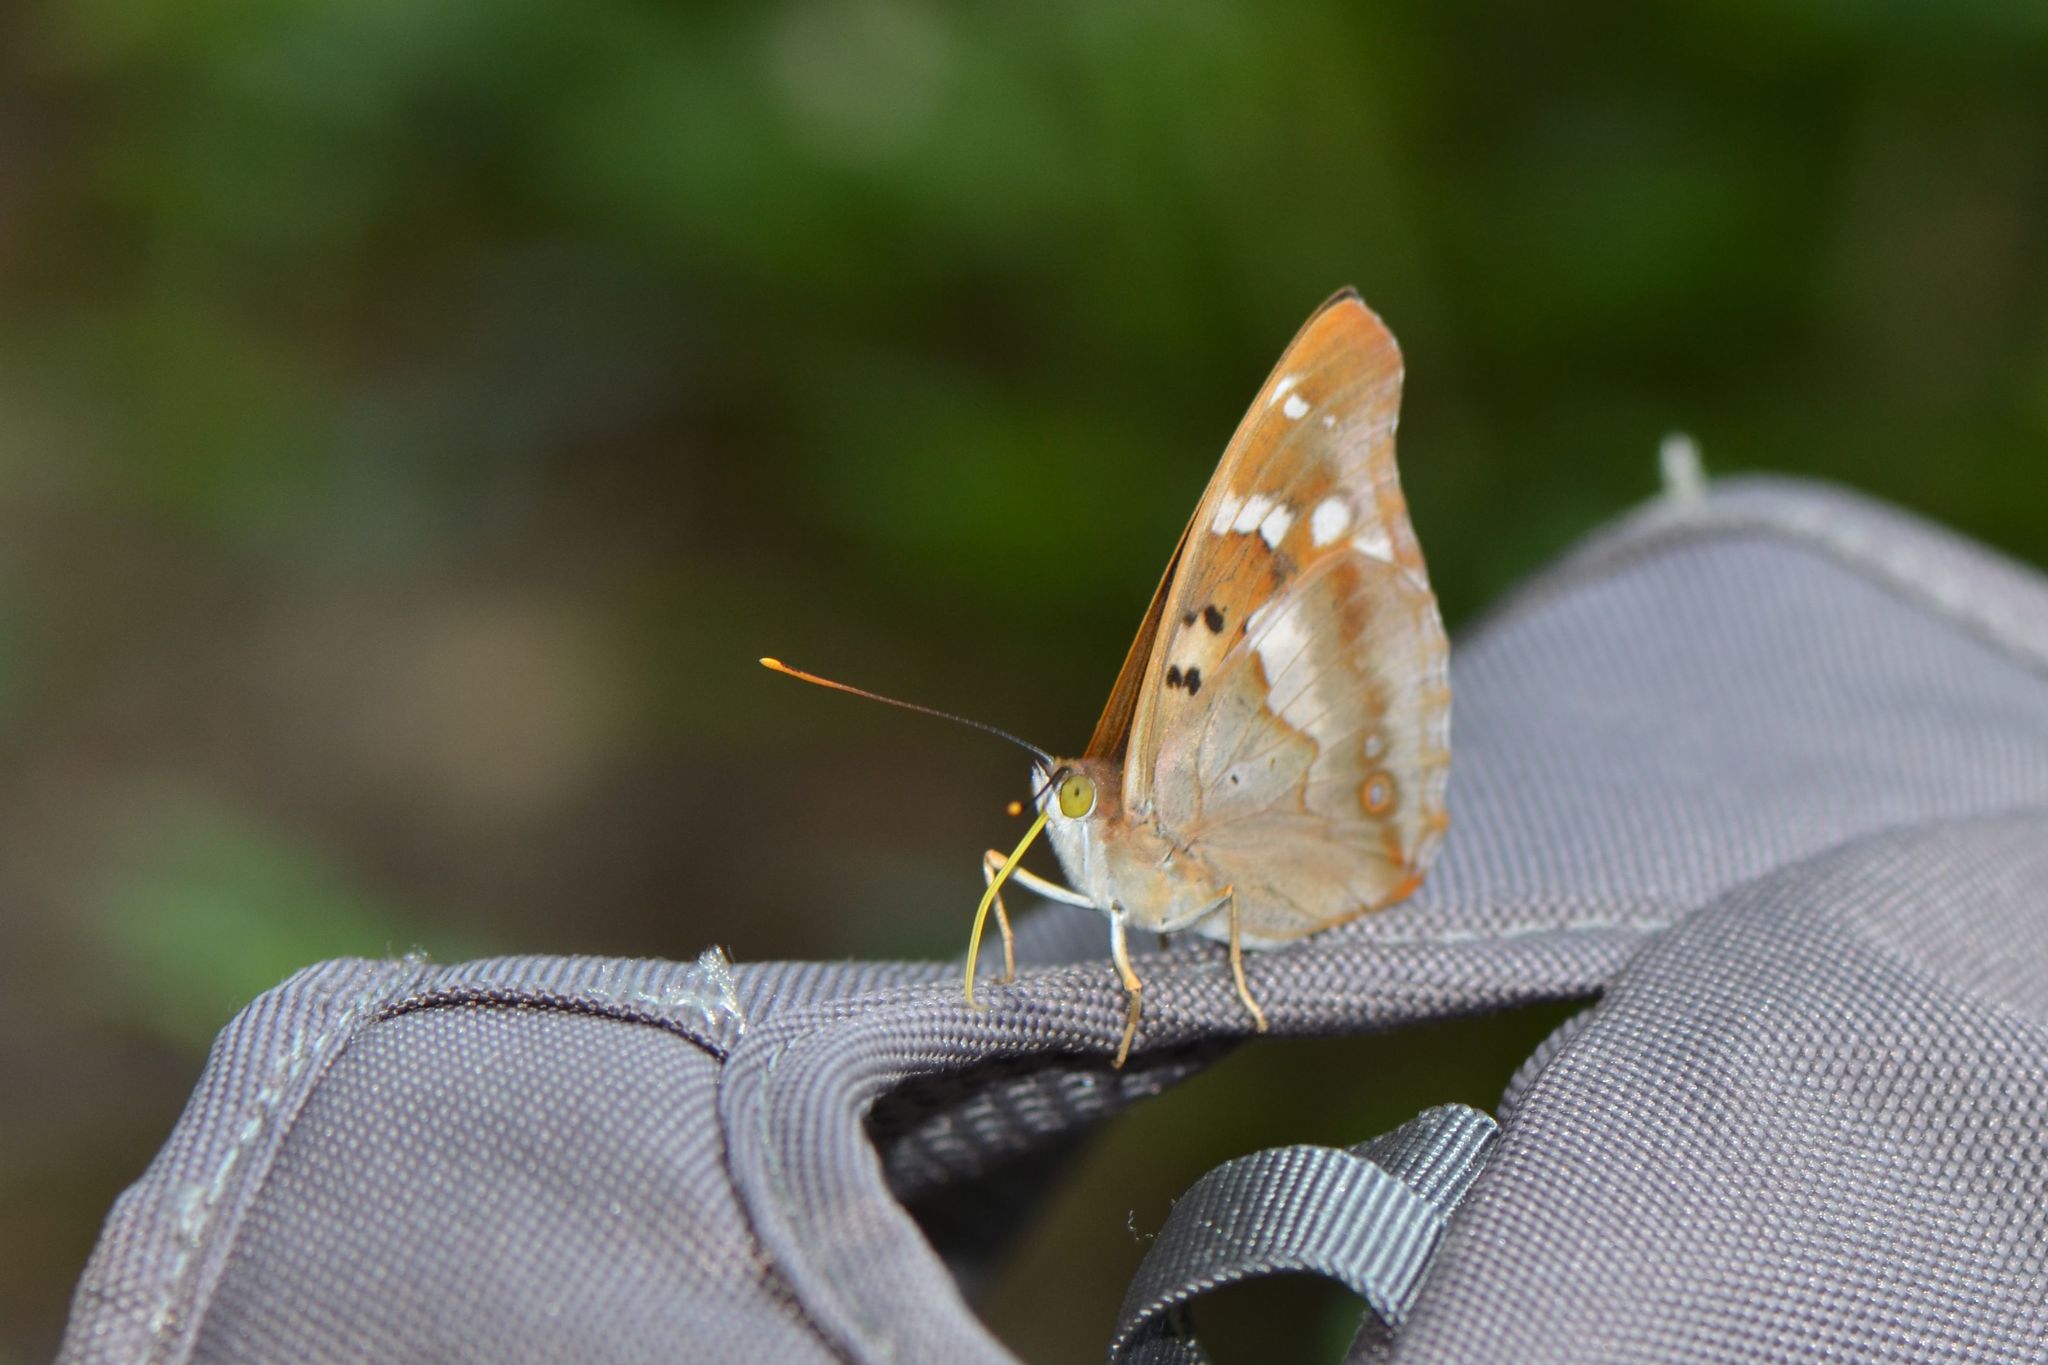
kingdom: Animalia
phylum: Arthropoda
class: Insecta
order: Lepidoptera
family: Nymphalidae
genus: Apatura
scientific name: Apatura ilia
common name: Lesser purple emperor
